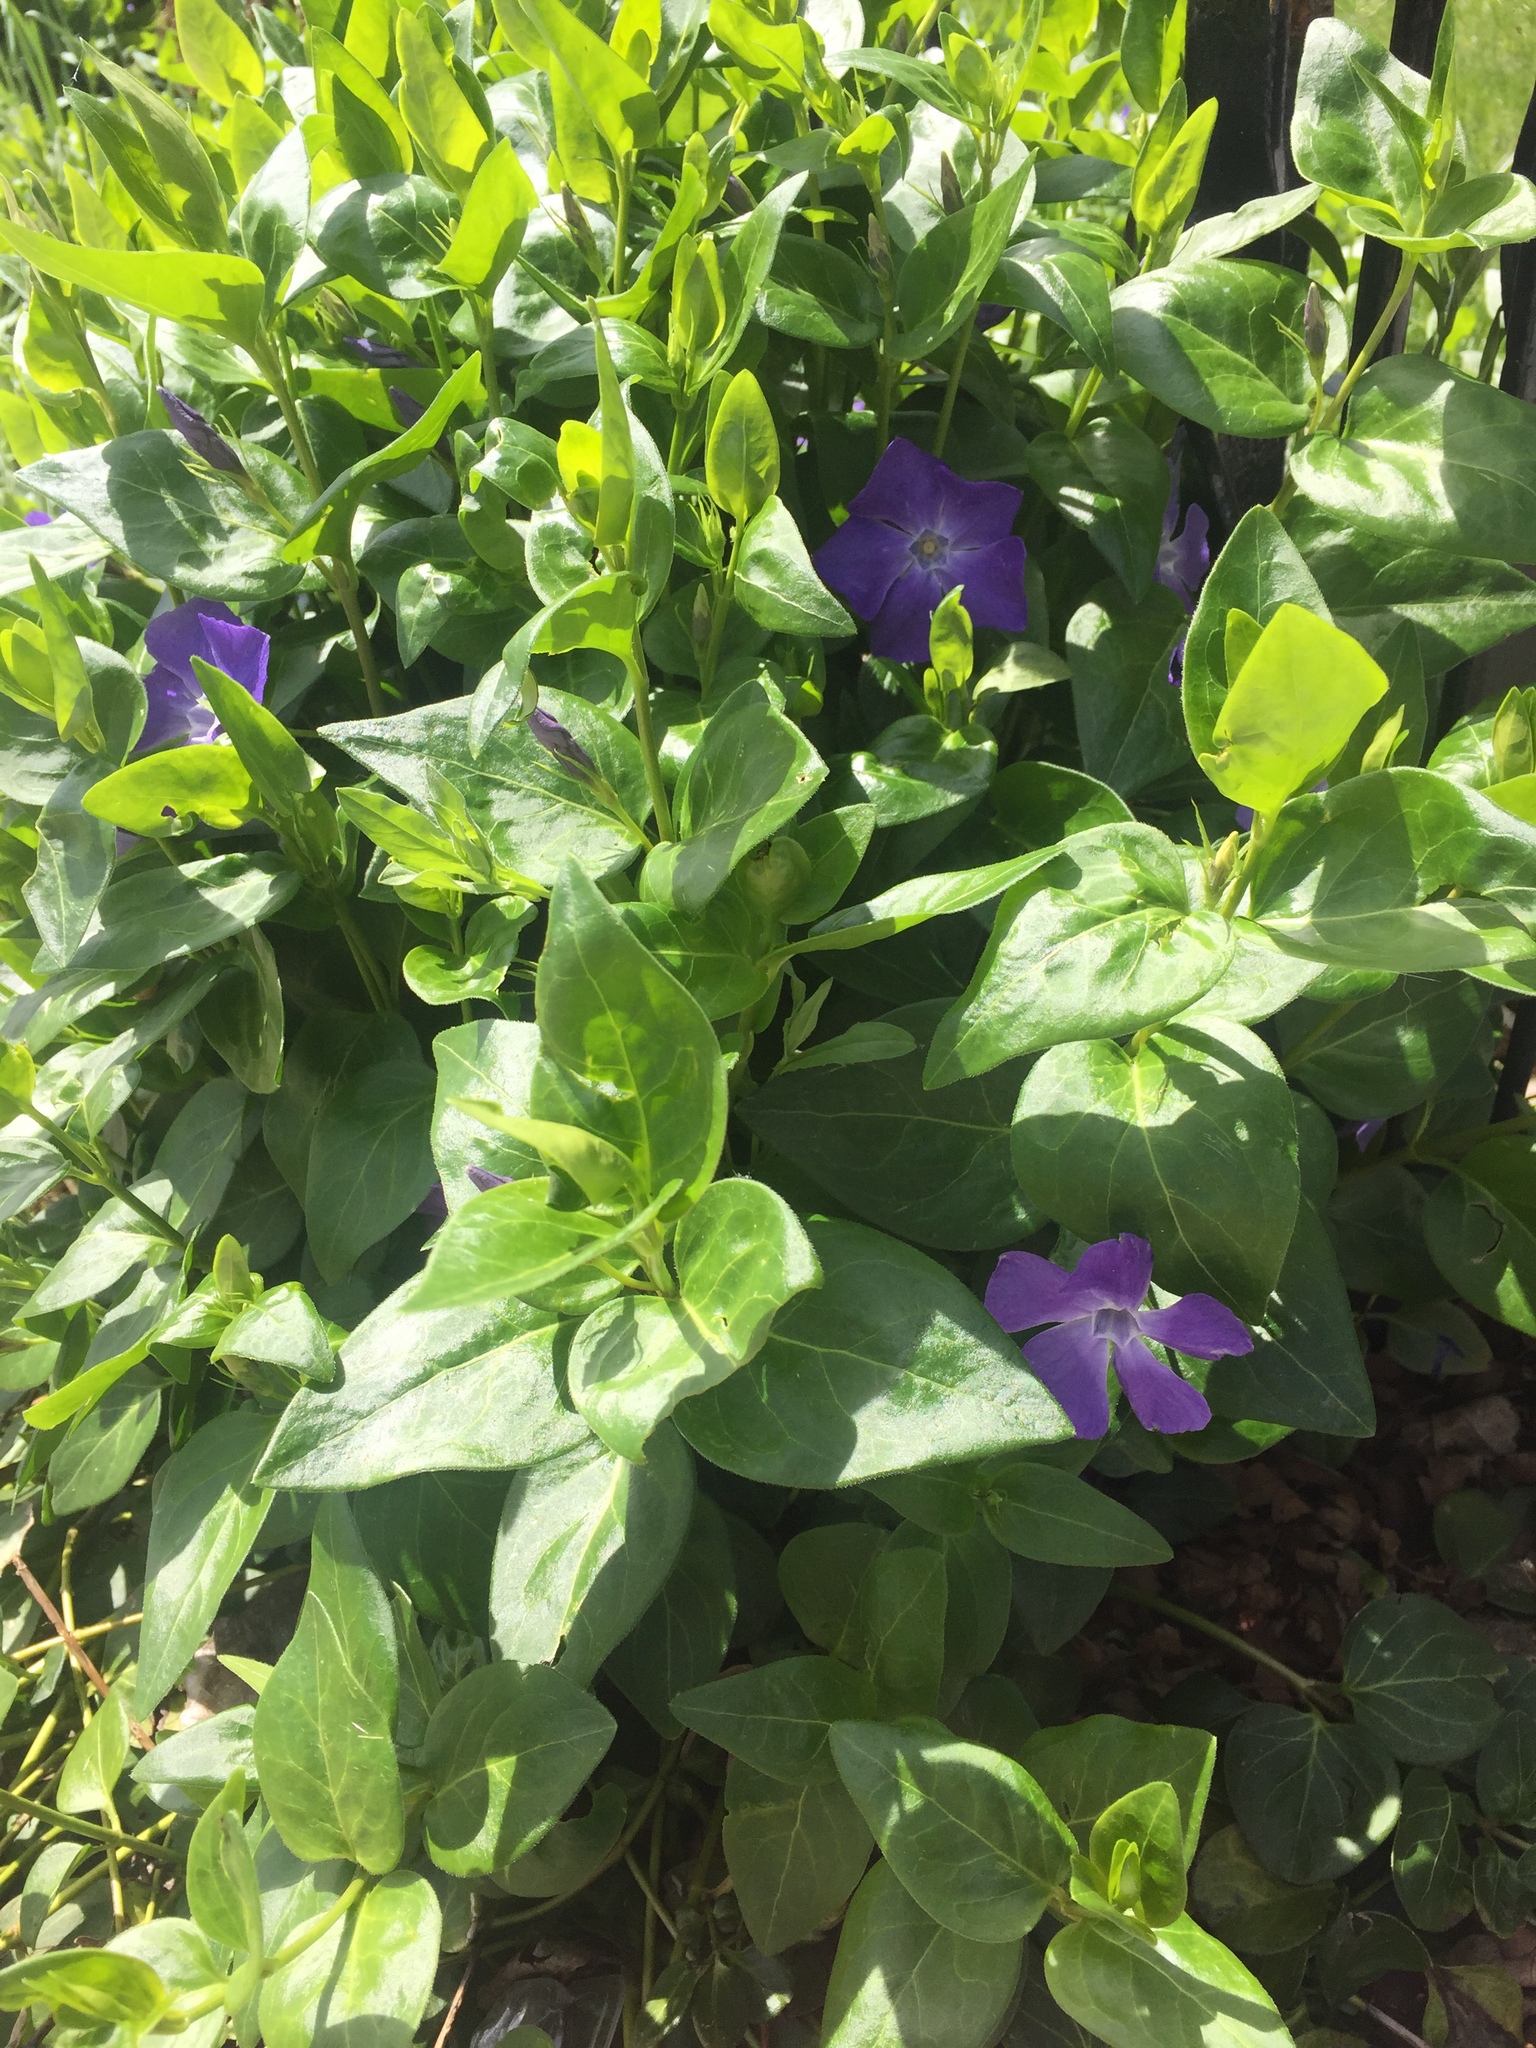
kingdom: Plantae
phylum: Tracheophyta
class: Magnoliopsida
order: Gentianales
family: Apocynaceae
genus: Vinca
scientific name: Vinca major
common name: Greater periwinkle
